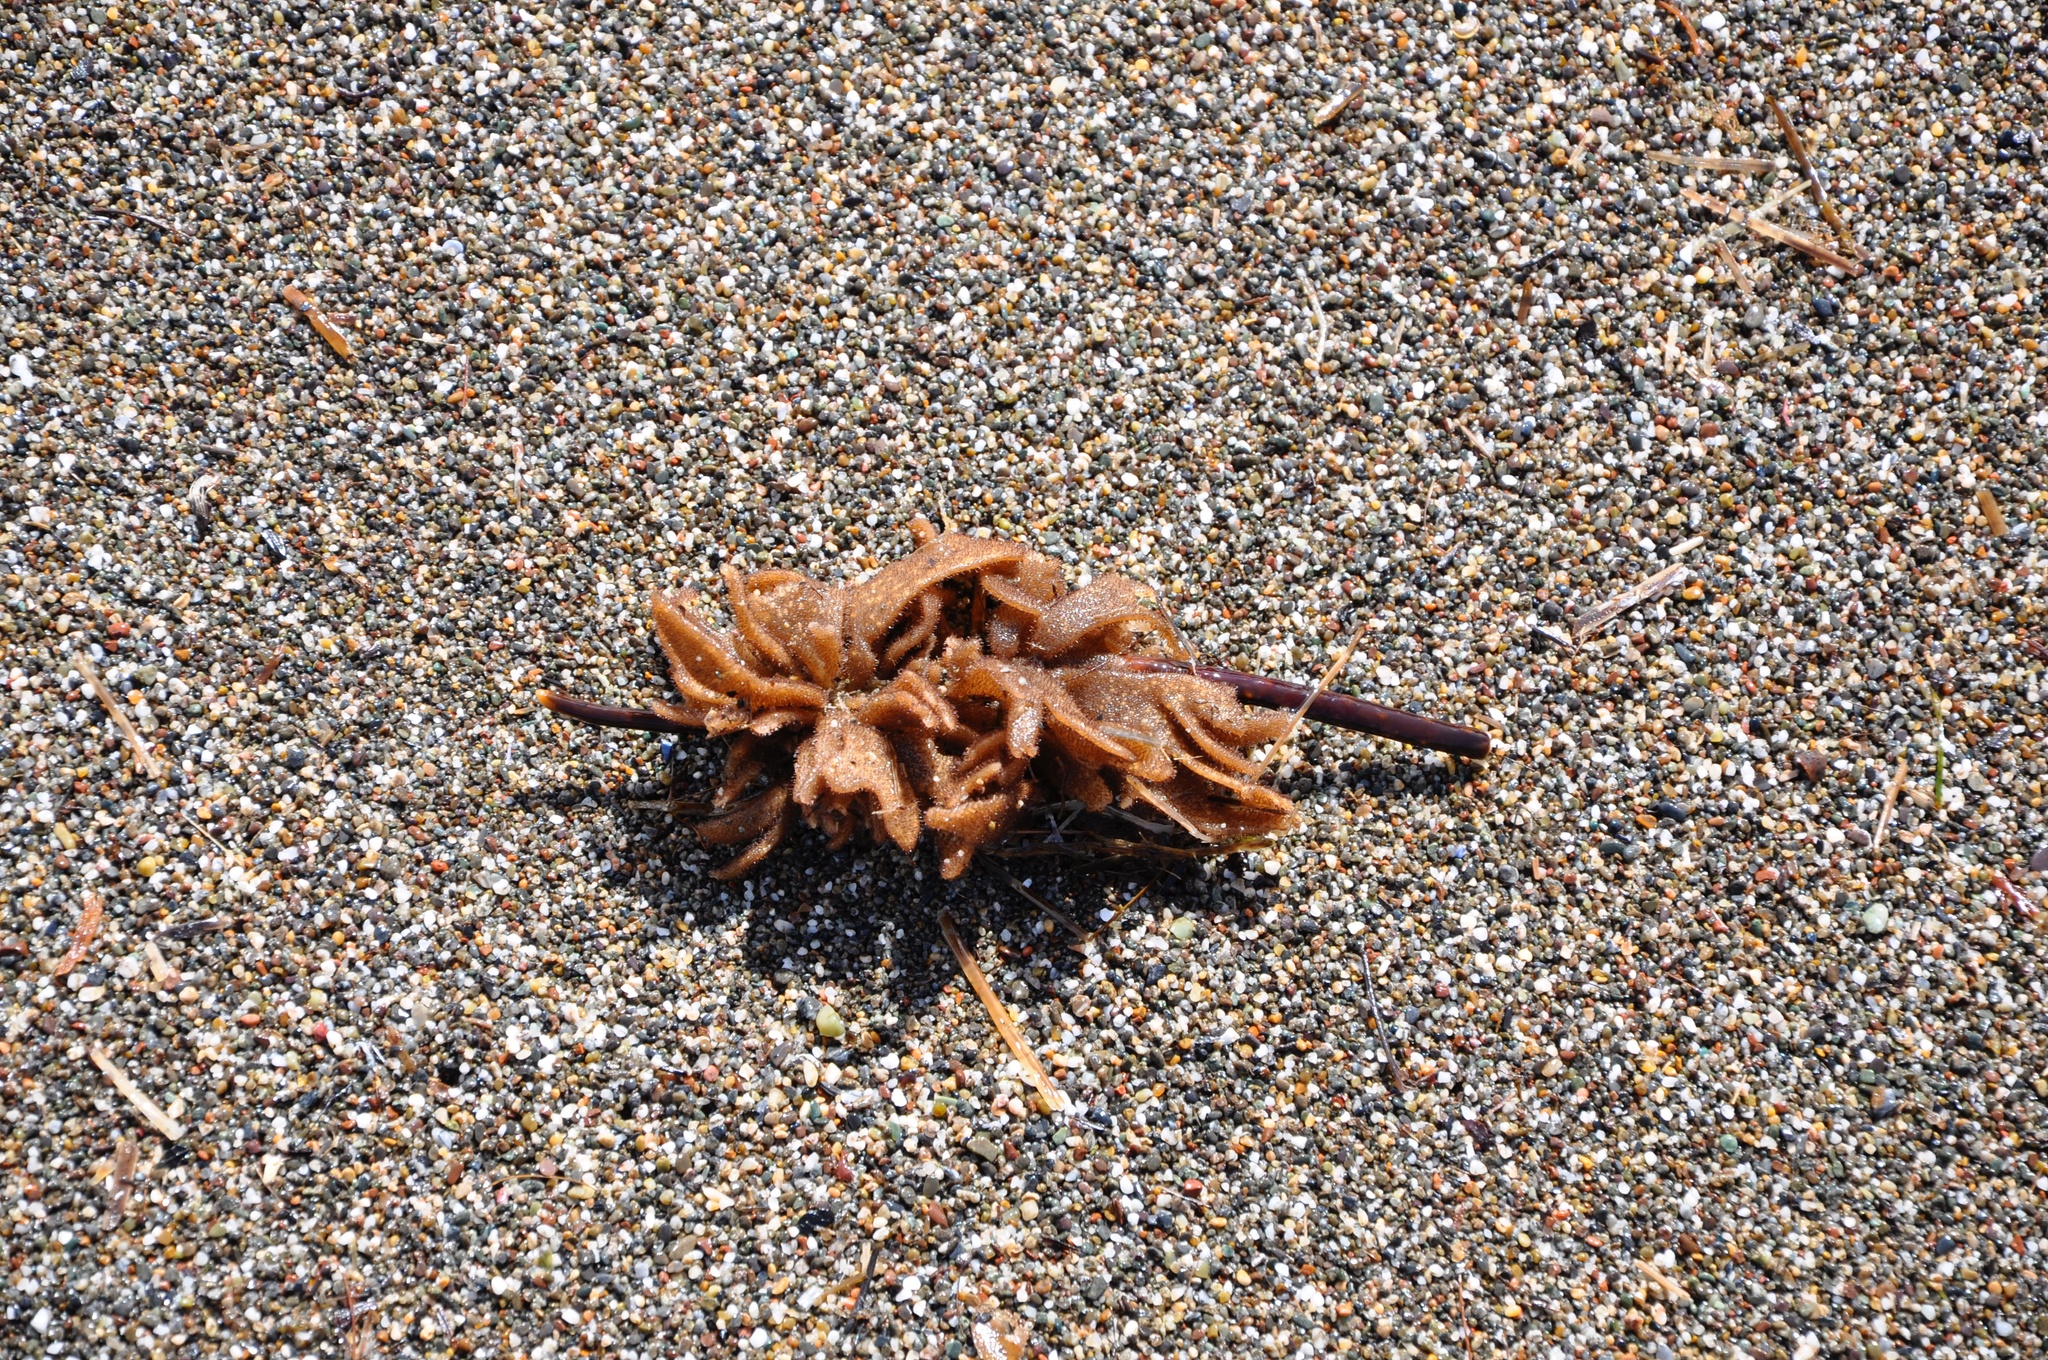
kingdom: Animalia
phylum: Bryozoa
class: Gymnolaemata
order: Ctenostomatida
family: Flustrellidridae
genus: Flustrellidra
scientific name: Flustrellidra corniculata
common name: Spiny leather bryozoan
